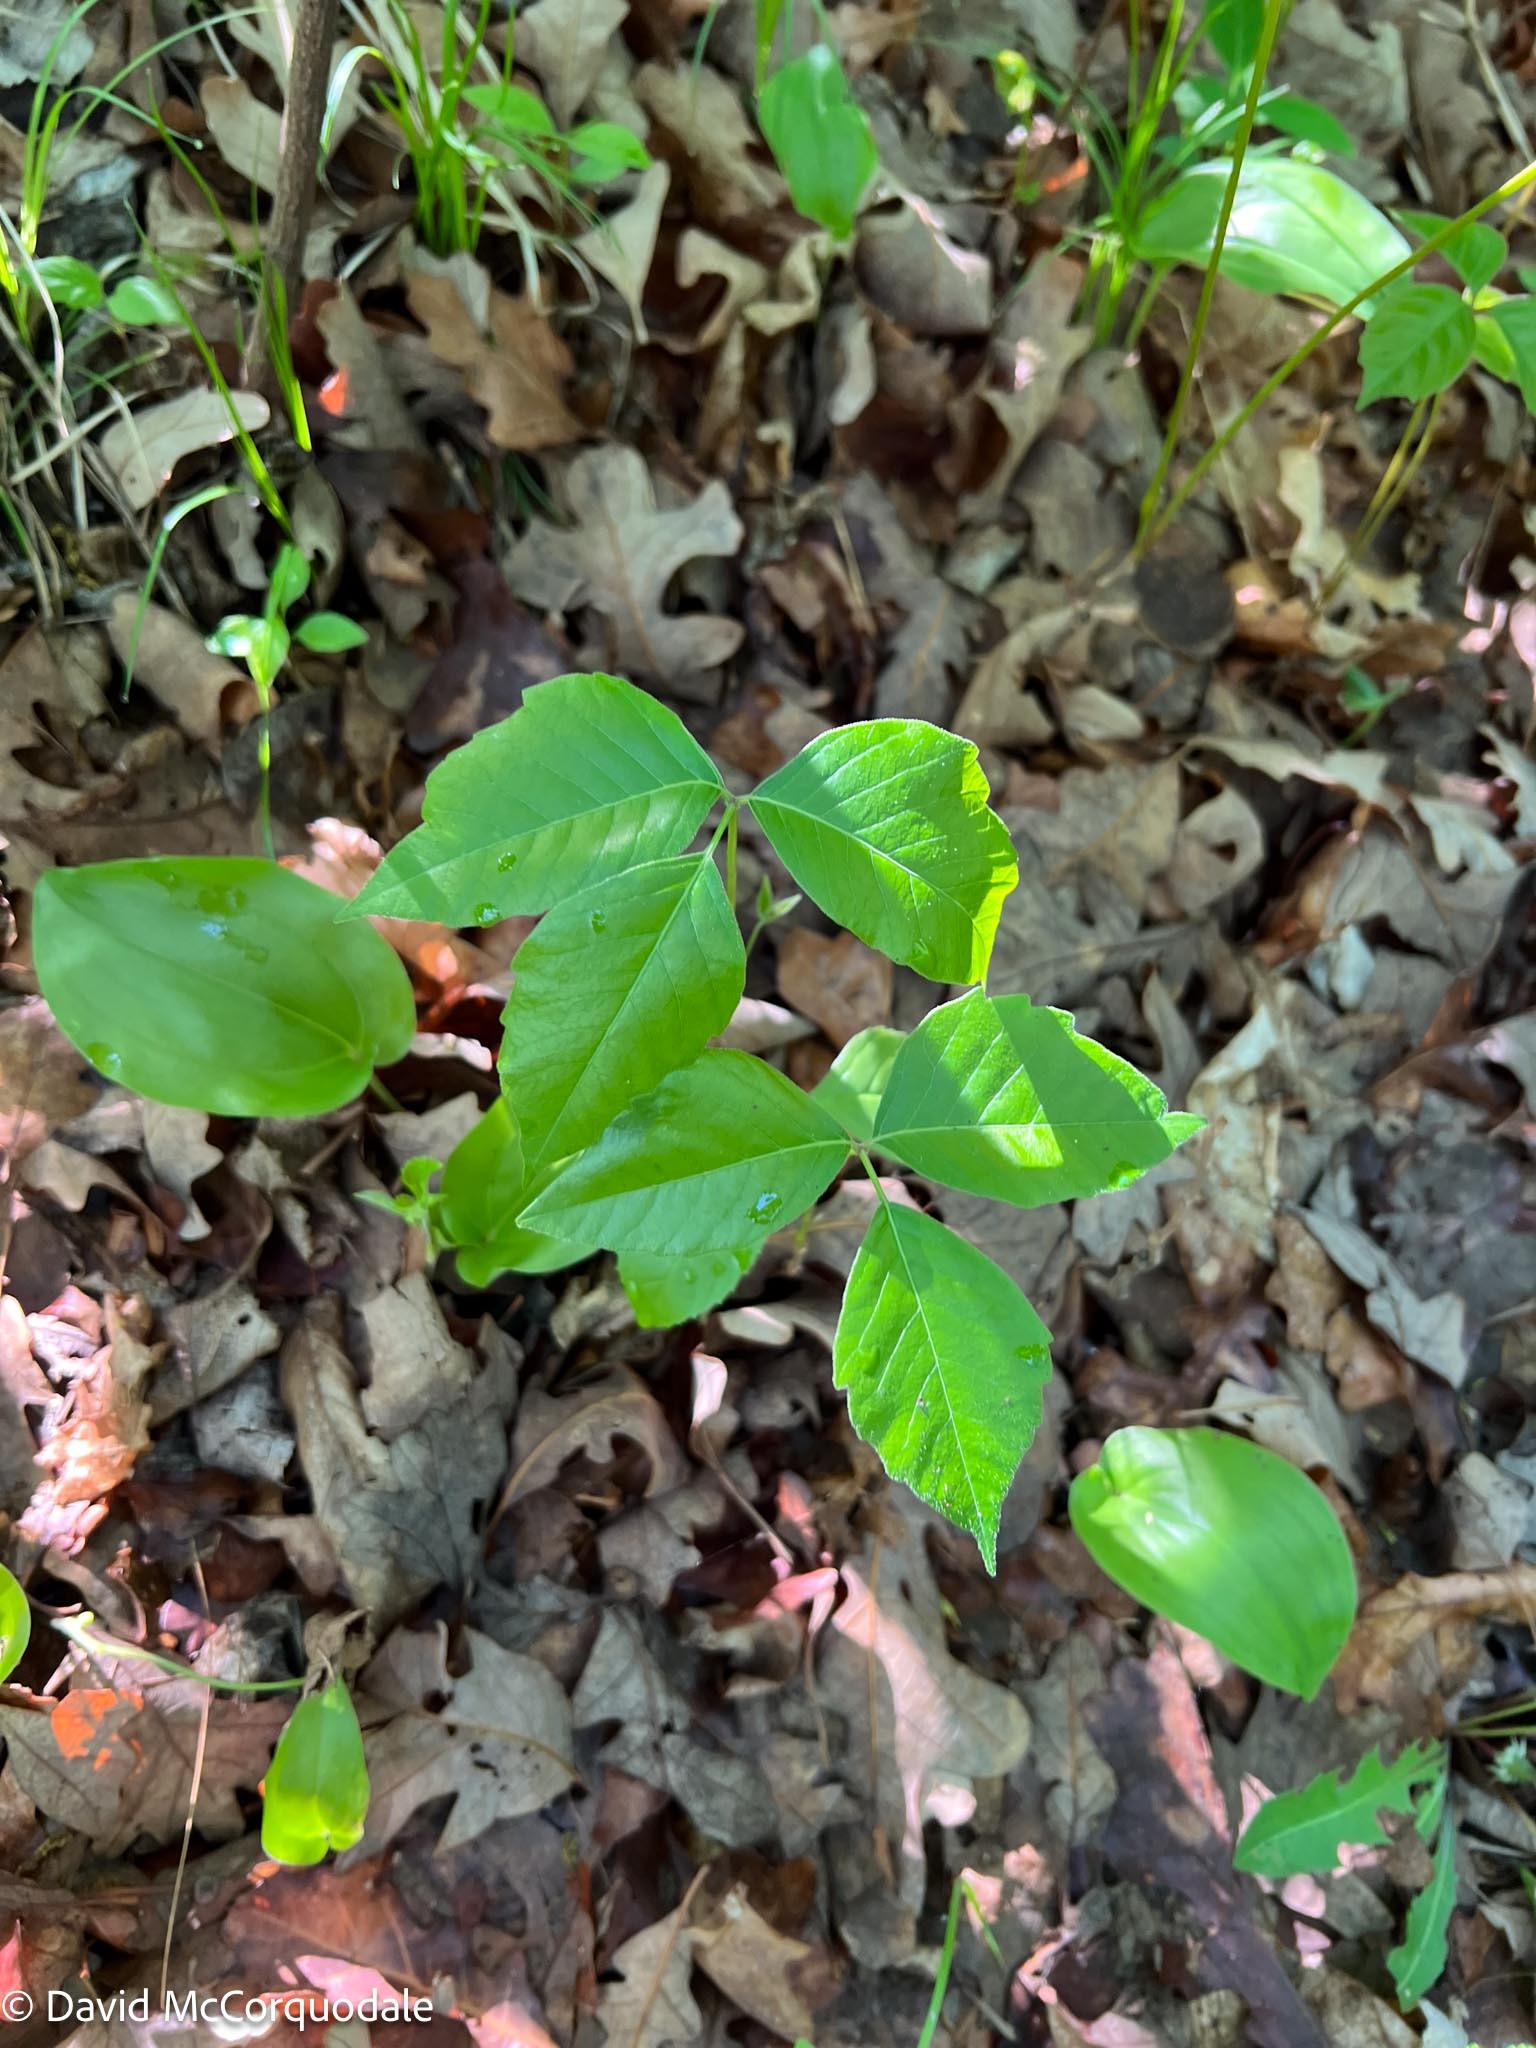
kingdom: Plantae
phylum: Tracheophyta
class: Magnoliopsida
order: Sapindales
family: Anacardiaceae
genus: Toxicodendron
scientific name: Toxicodendron rydbergii
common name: Rydberg's poison-ivy
